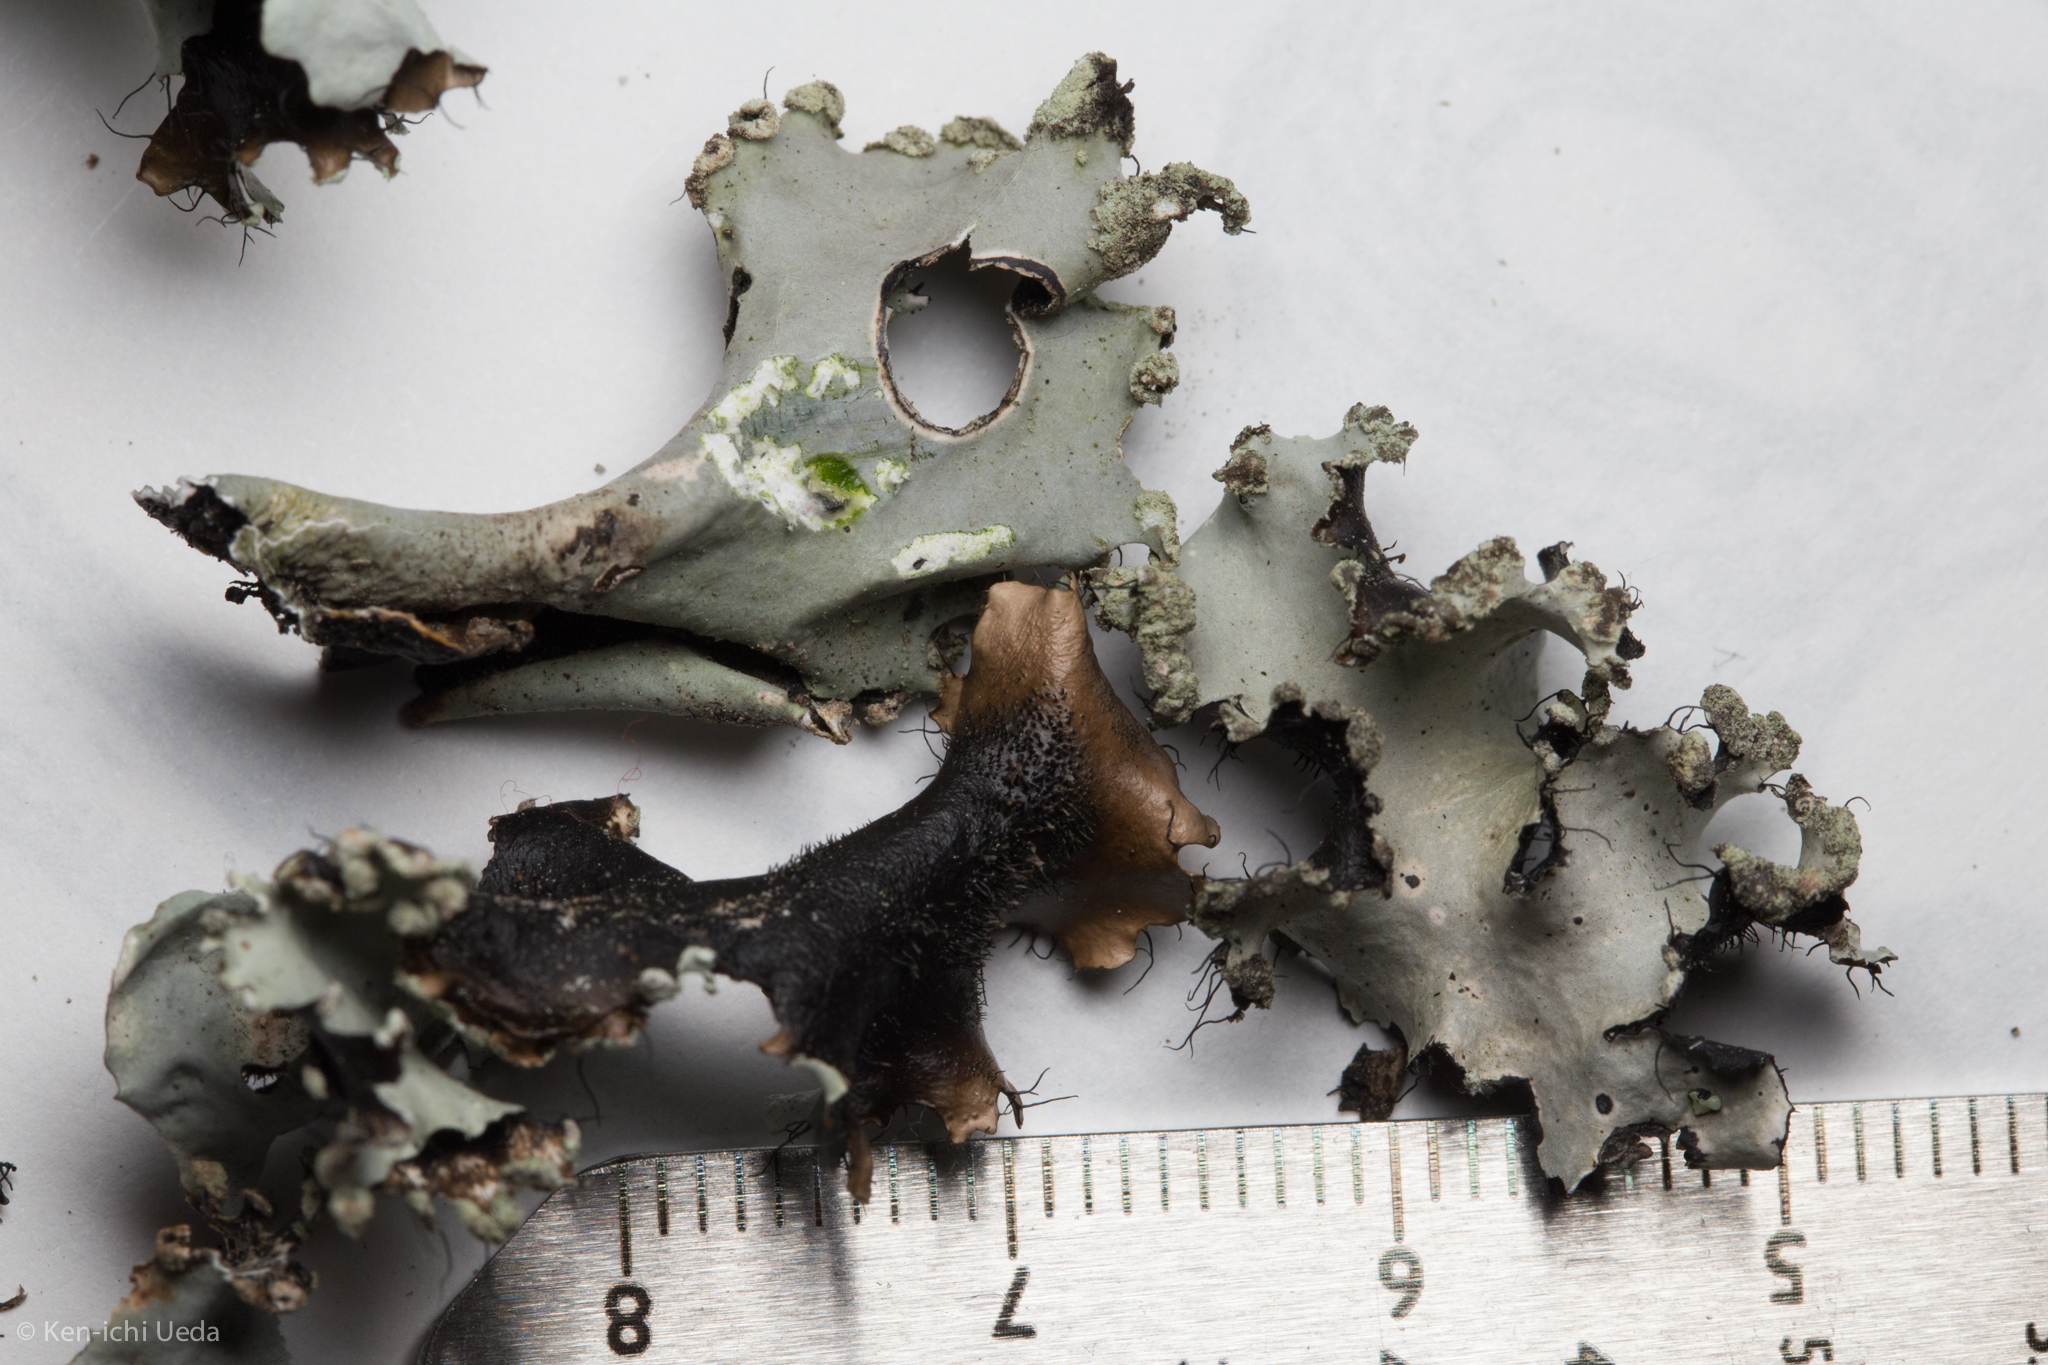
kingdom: Fungi
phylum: Ascomycota
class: Lecanoromycetes
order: Lecanorales
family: Parmeliaceae
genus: Parmotrema
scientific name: Parmotrema arnoldii
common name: Arnold's parmotrema lichen
